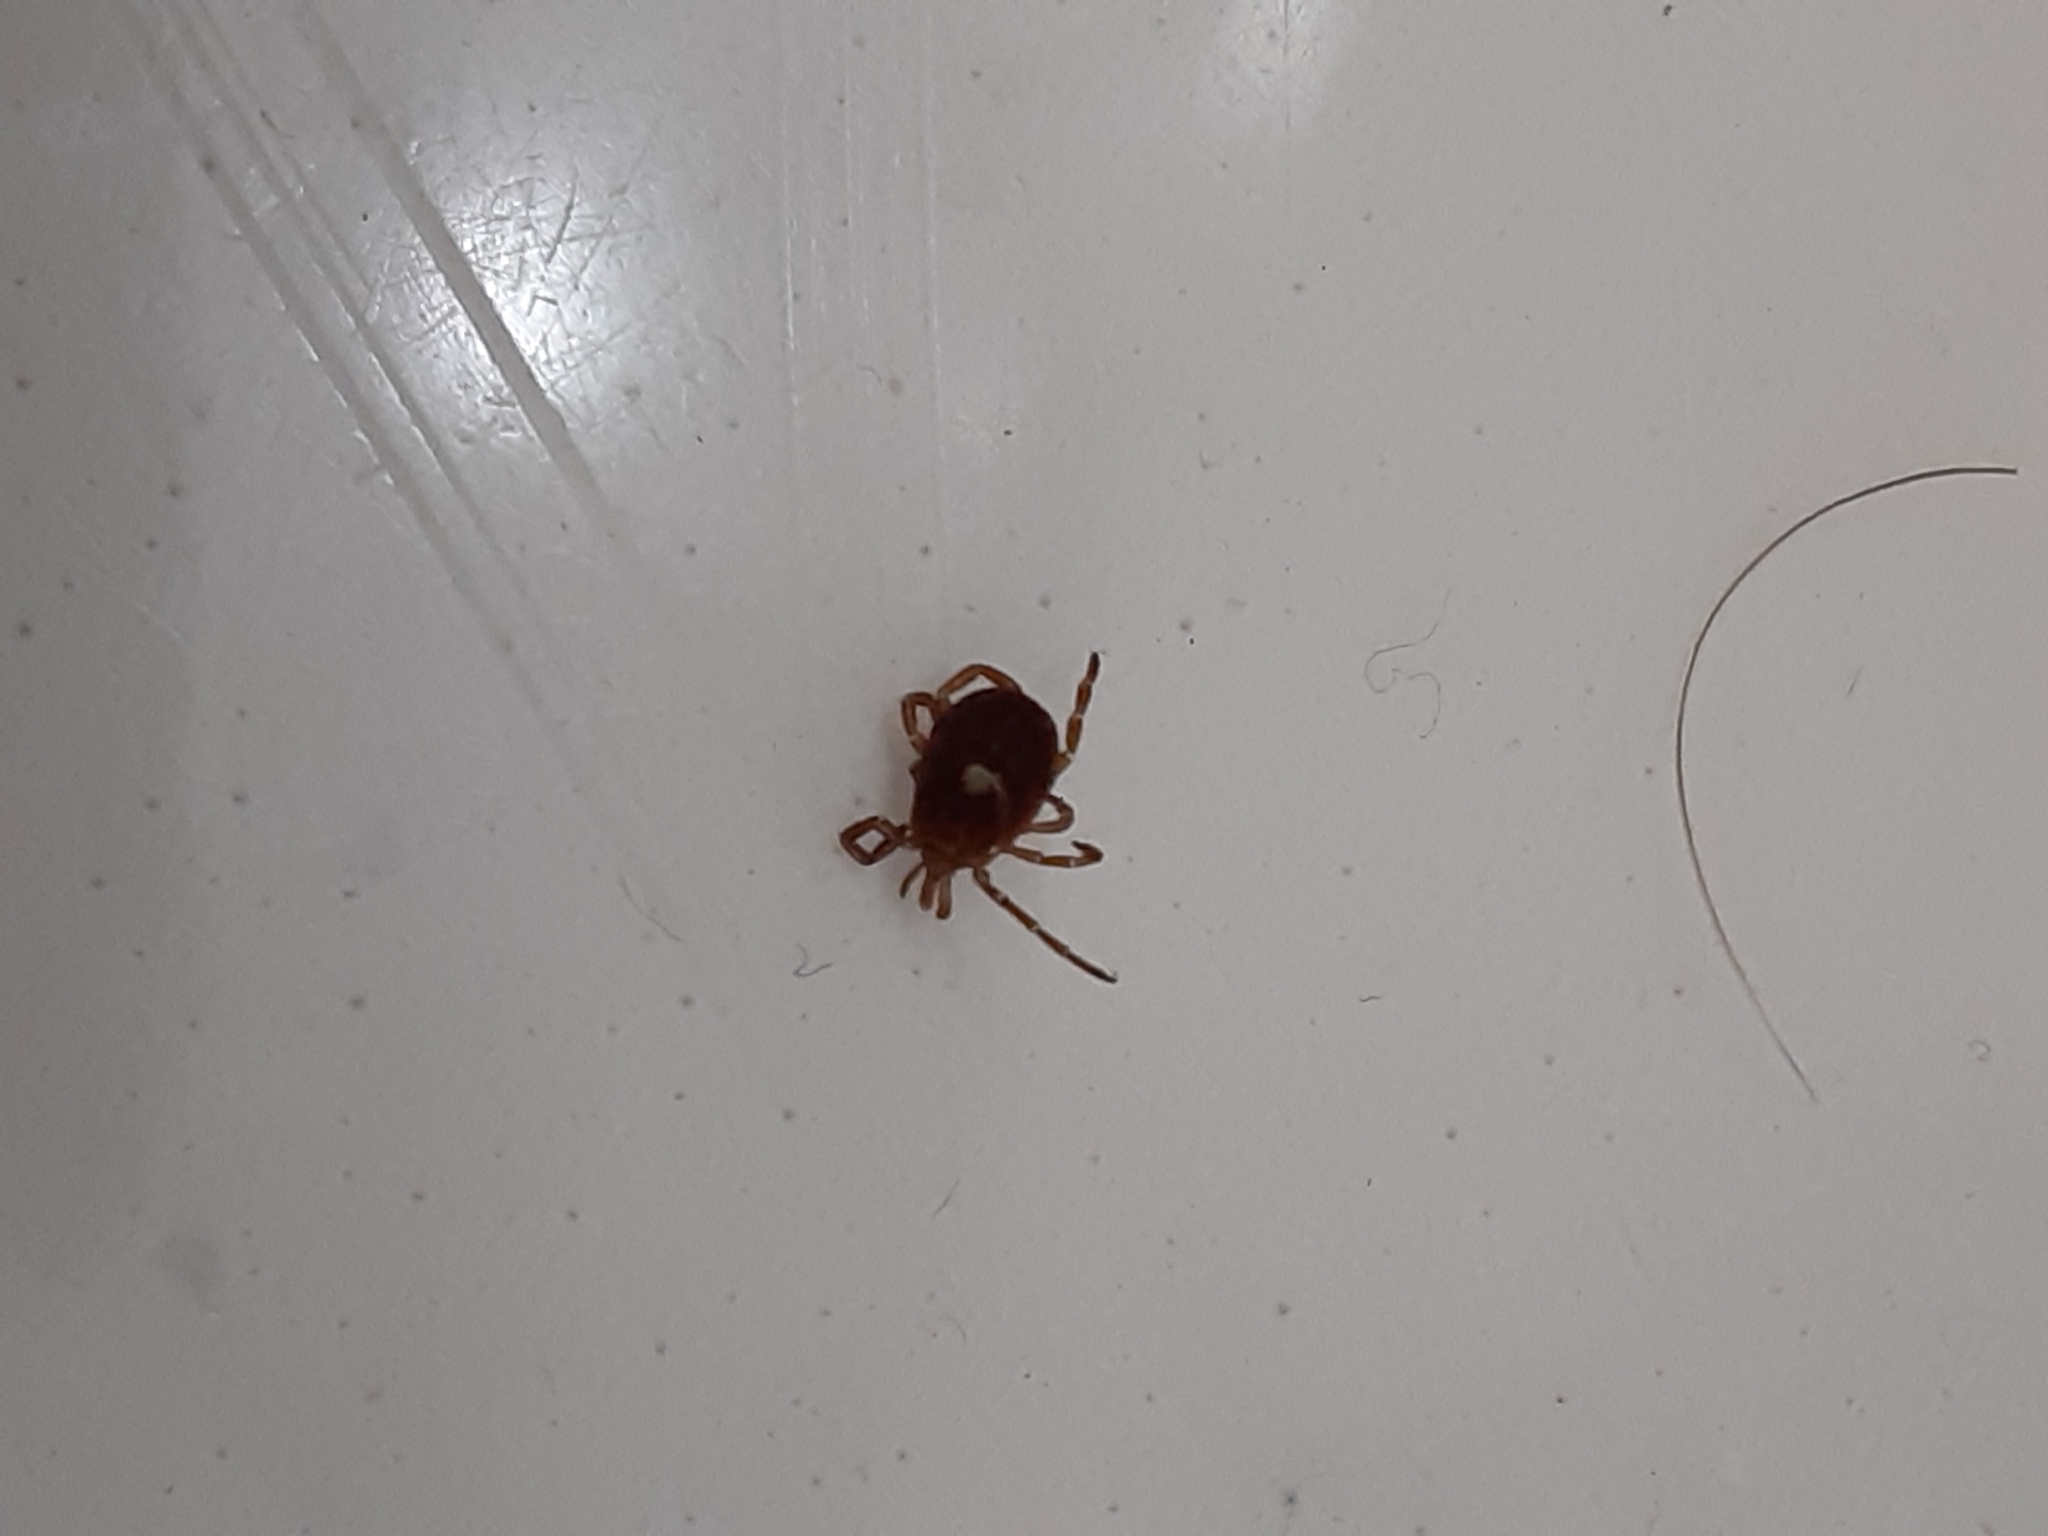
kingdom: Animalia
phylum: Arthropoda
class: Arachnida
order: Ixodida
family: Ixodidae
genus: Amblyomma
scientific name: Amblyomma americanum
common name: Lone star tick
